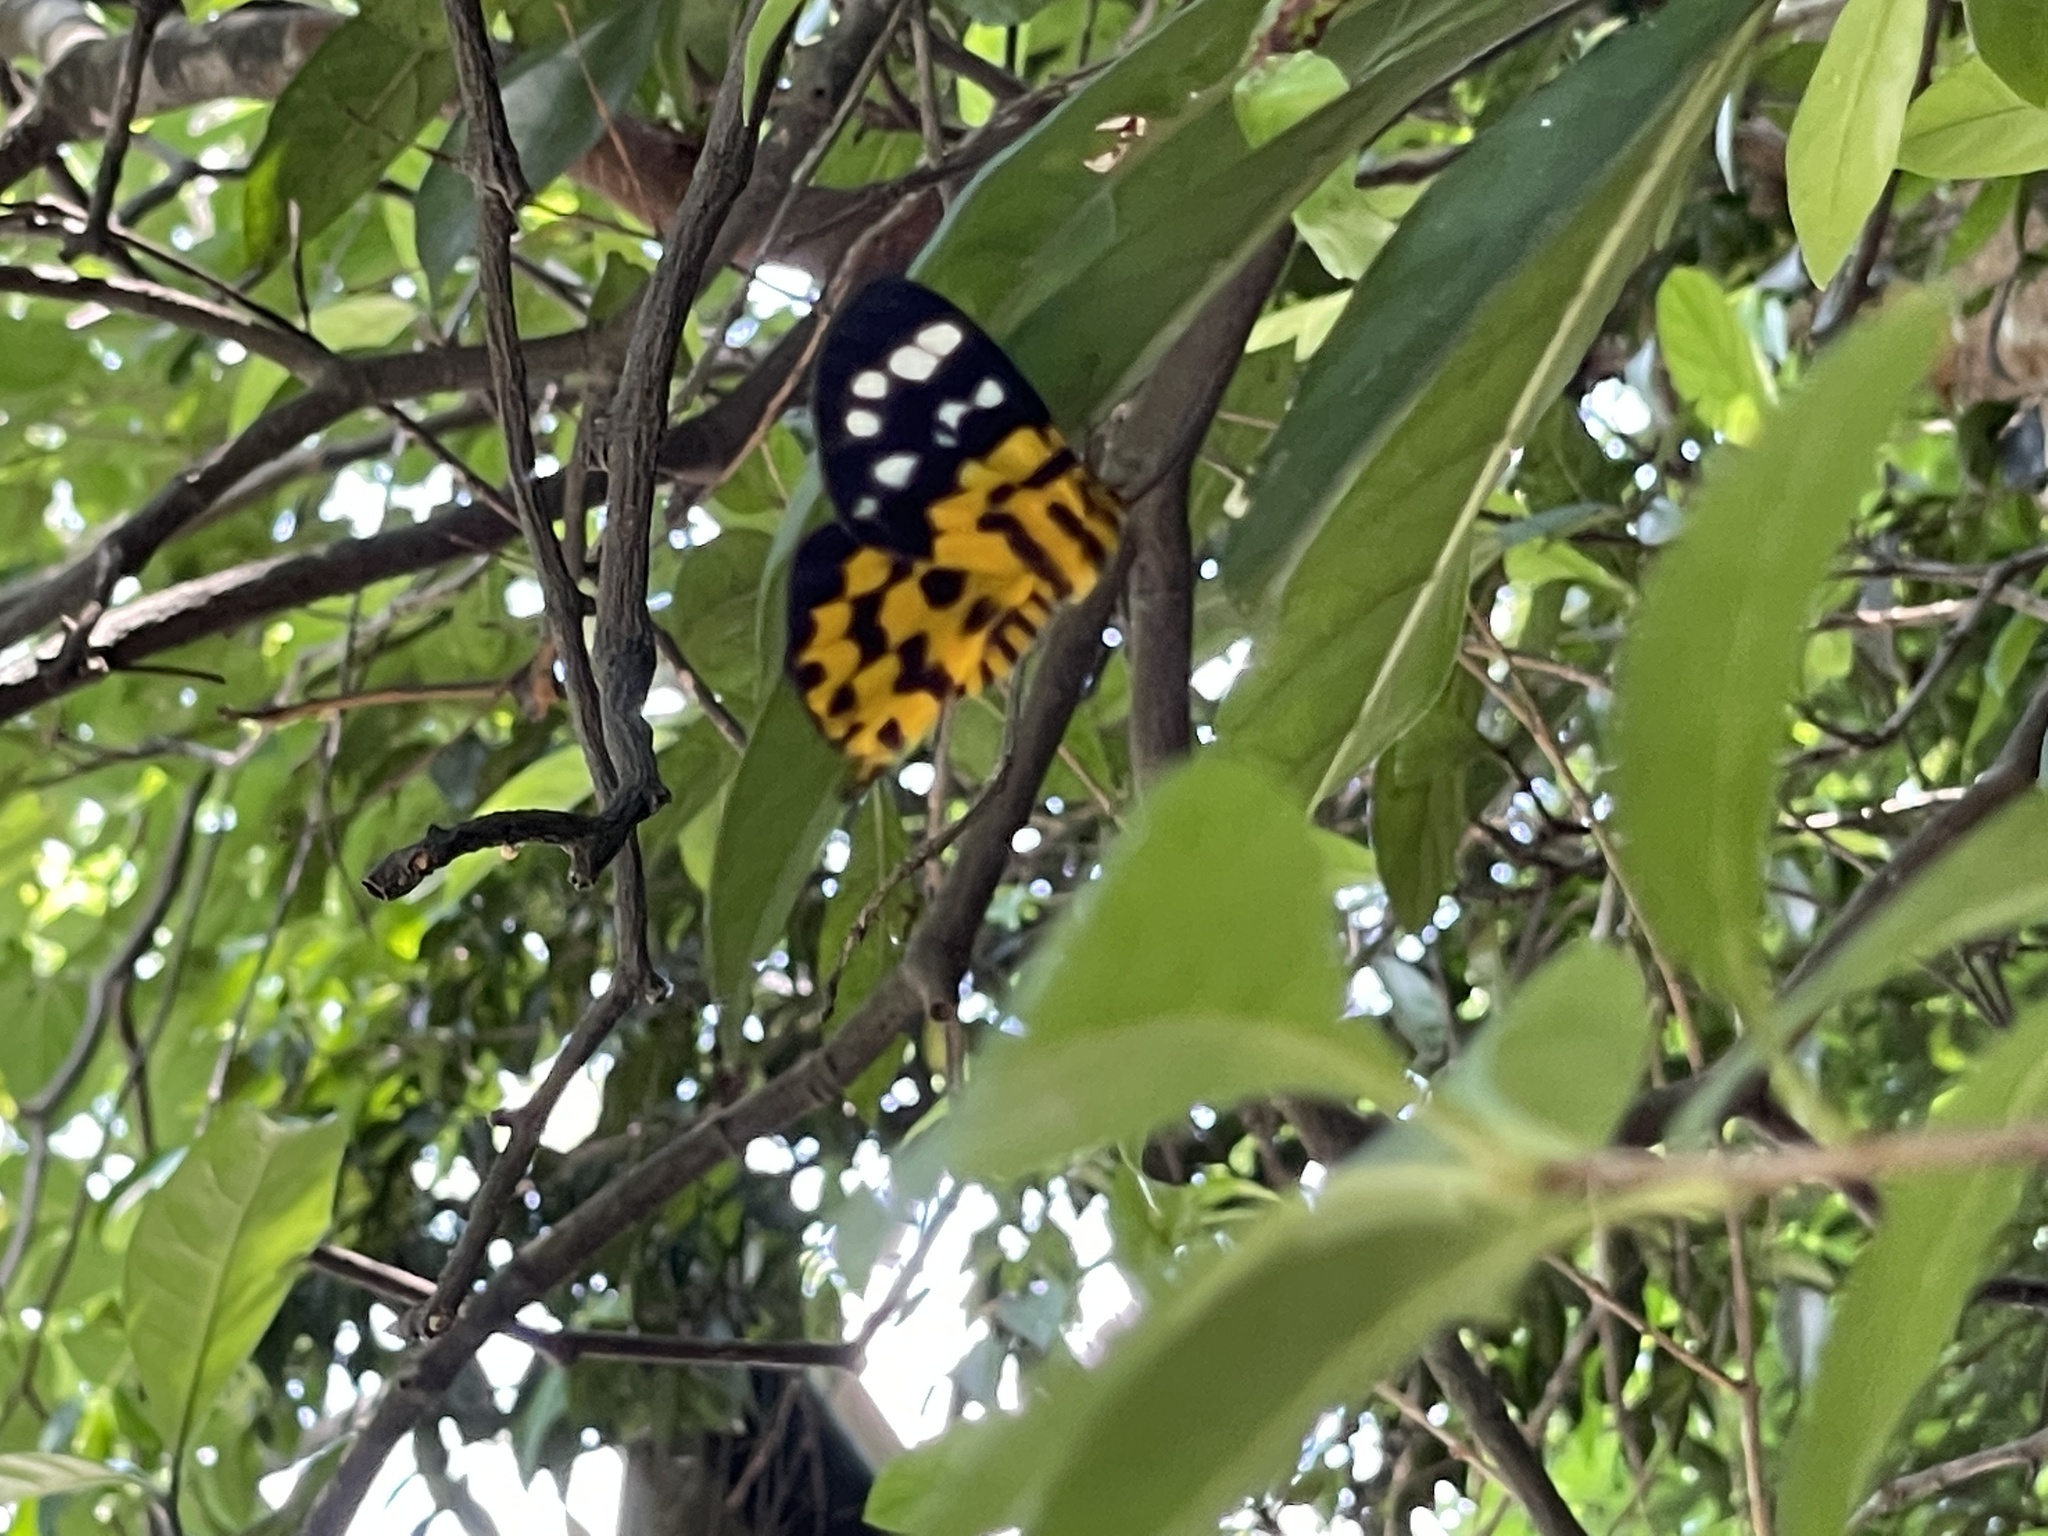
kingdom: Animalia
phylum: Arthropoda
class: Insecta
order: Lepidoptera
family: Geometridae
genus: Dysphania
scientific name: Dysphania militaris
